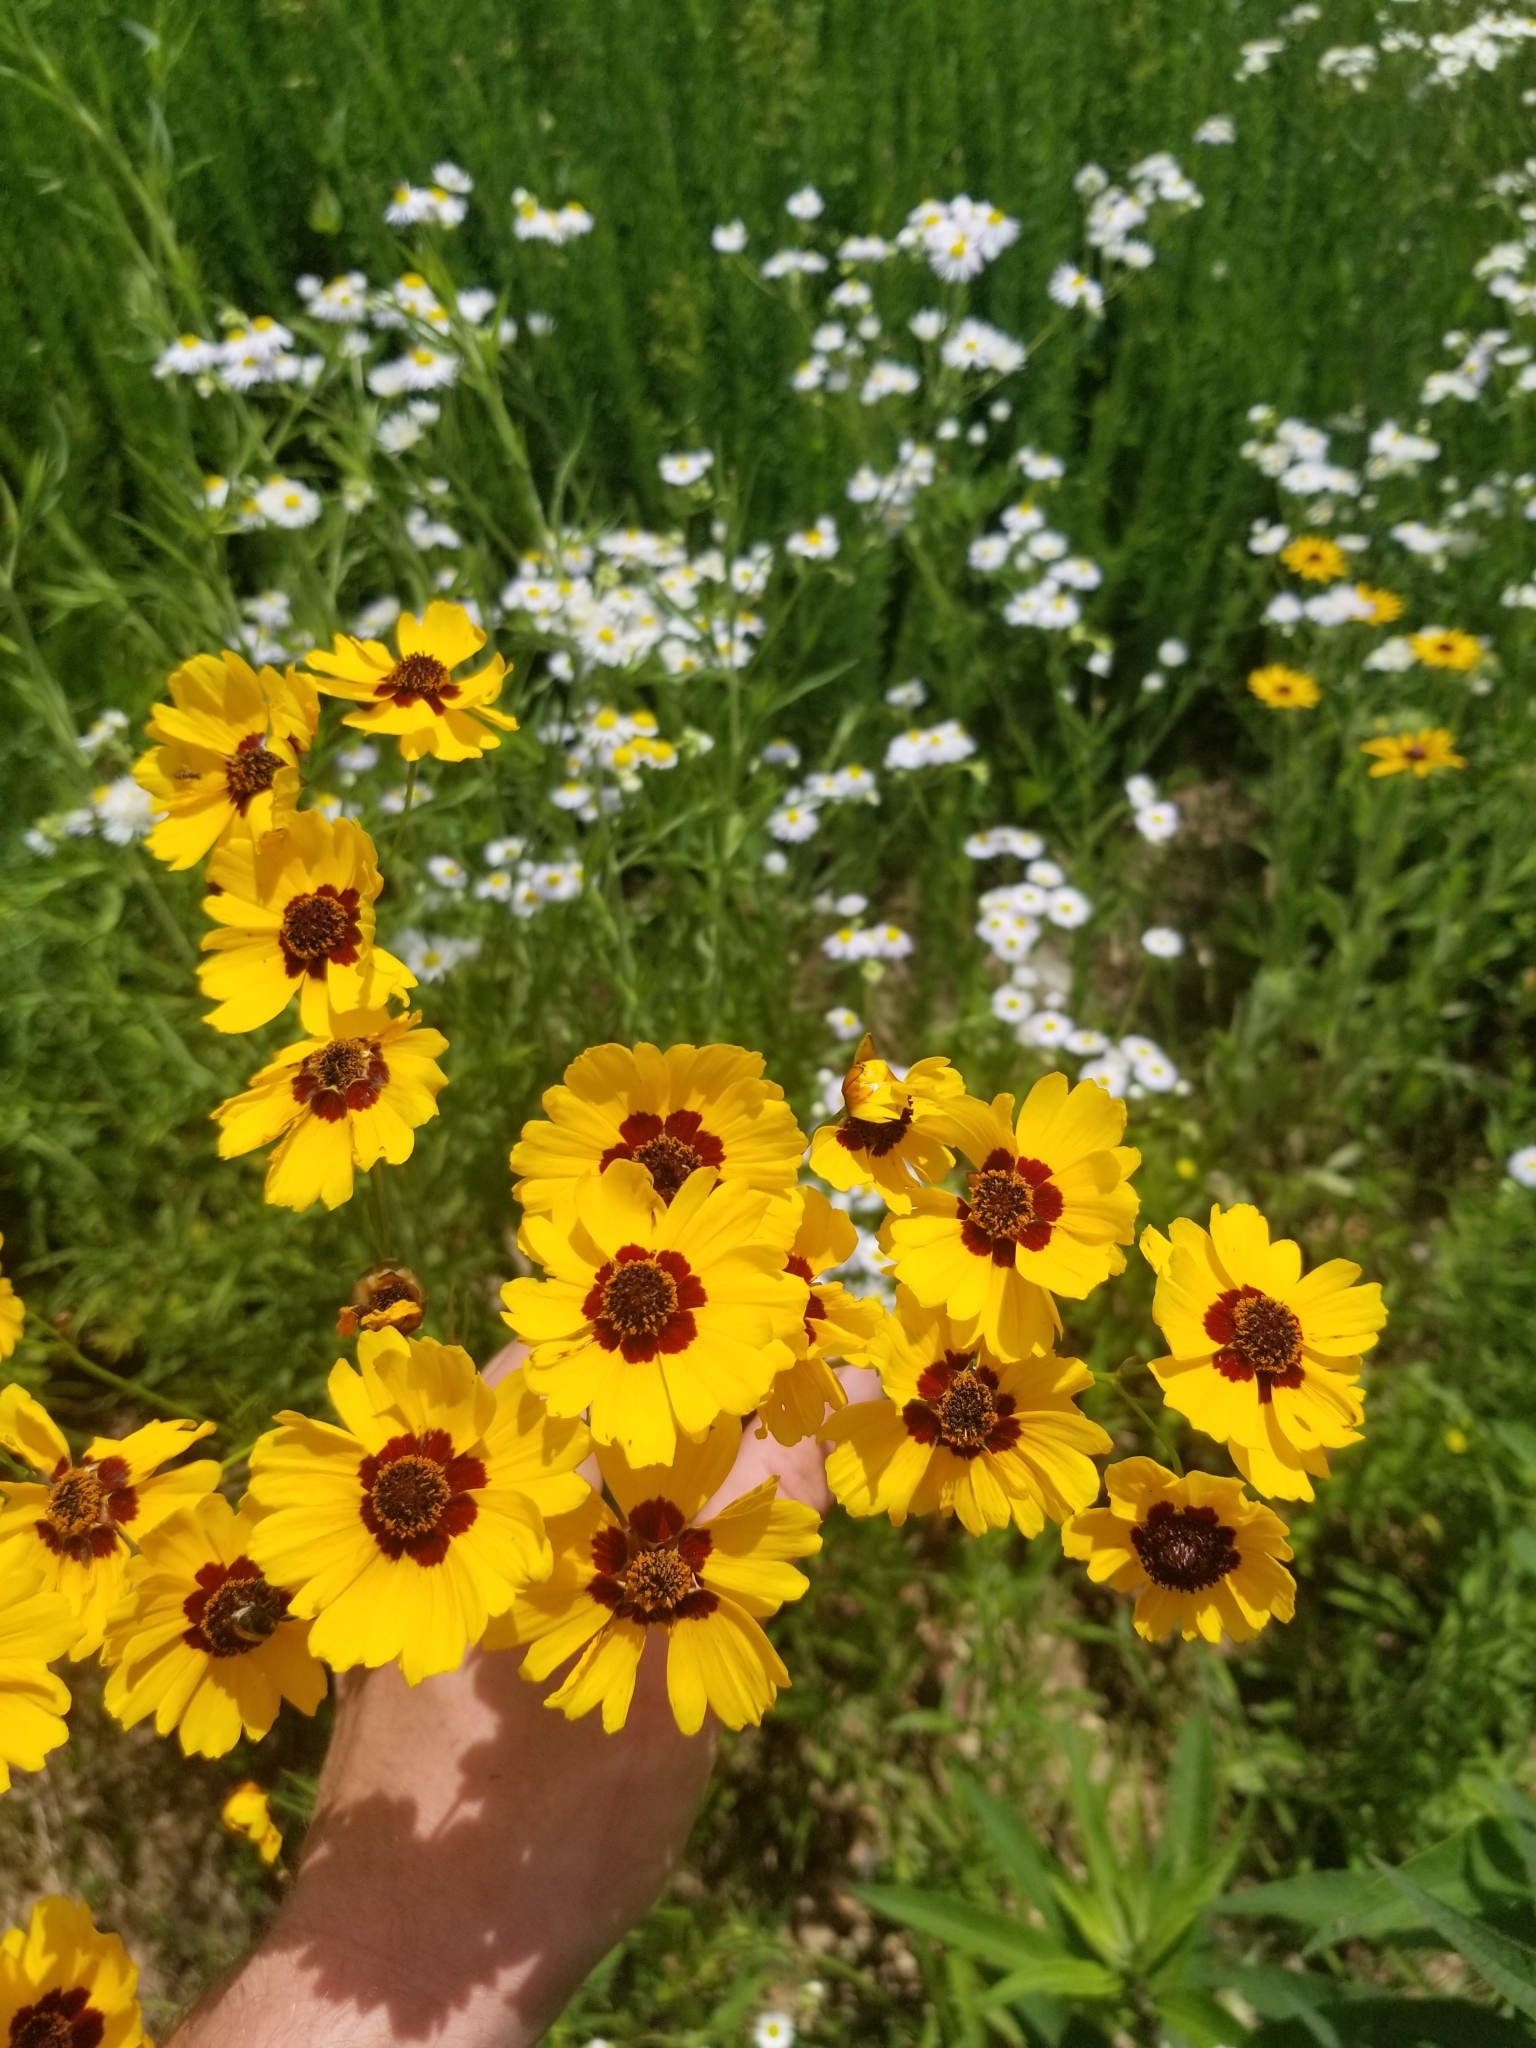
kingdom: Plantae
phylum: Tracheophyta
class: Magnoliopsida
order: Asterales
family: Asteraceae
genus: Coreopsis
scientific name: Coreopsis tinctoria
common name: Garden tickseed
